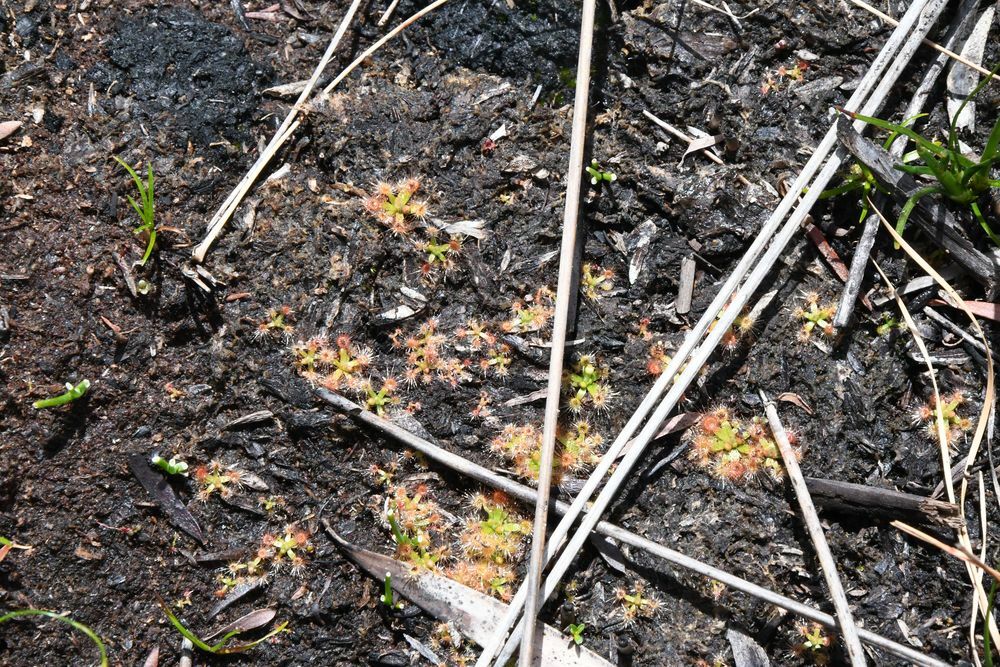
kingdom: Plantae
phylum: Tracheophyta
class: Magnoliopsida
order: Caryophyllales
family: Droseraceae
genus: Drosera
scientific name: Drosera pulchella
